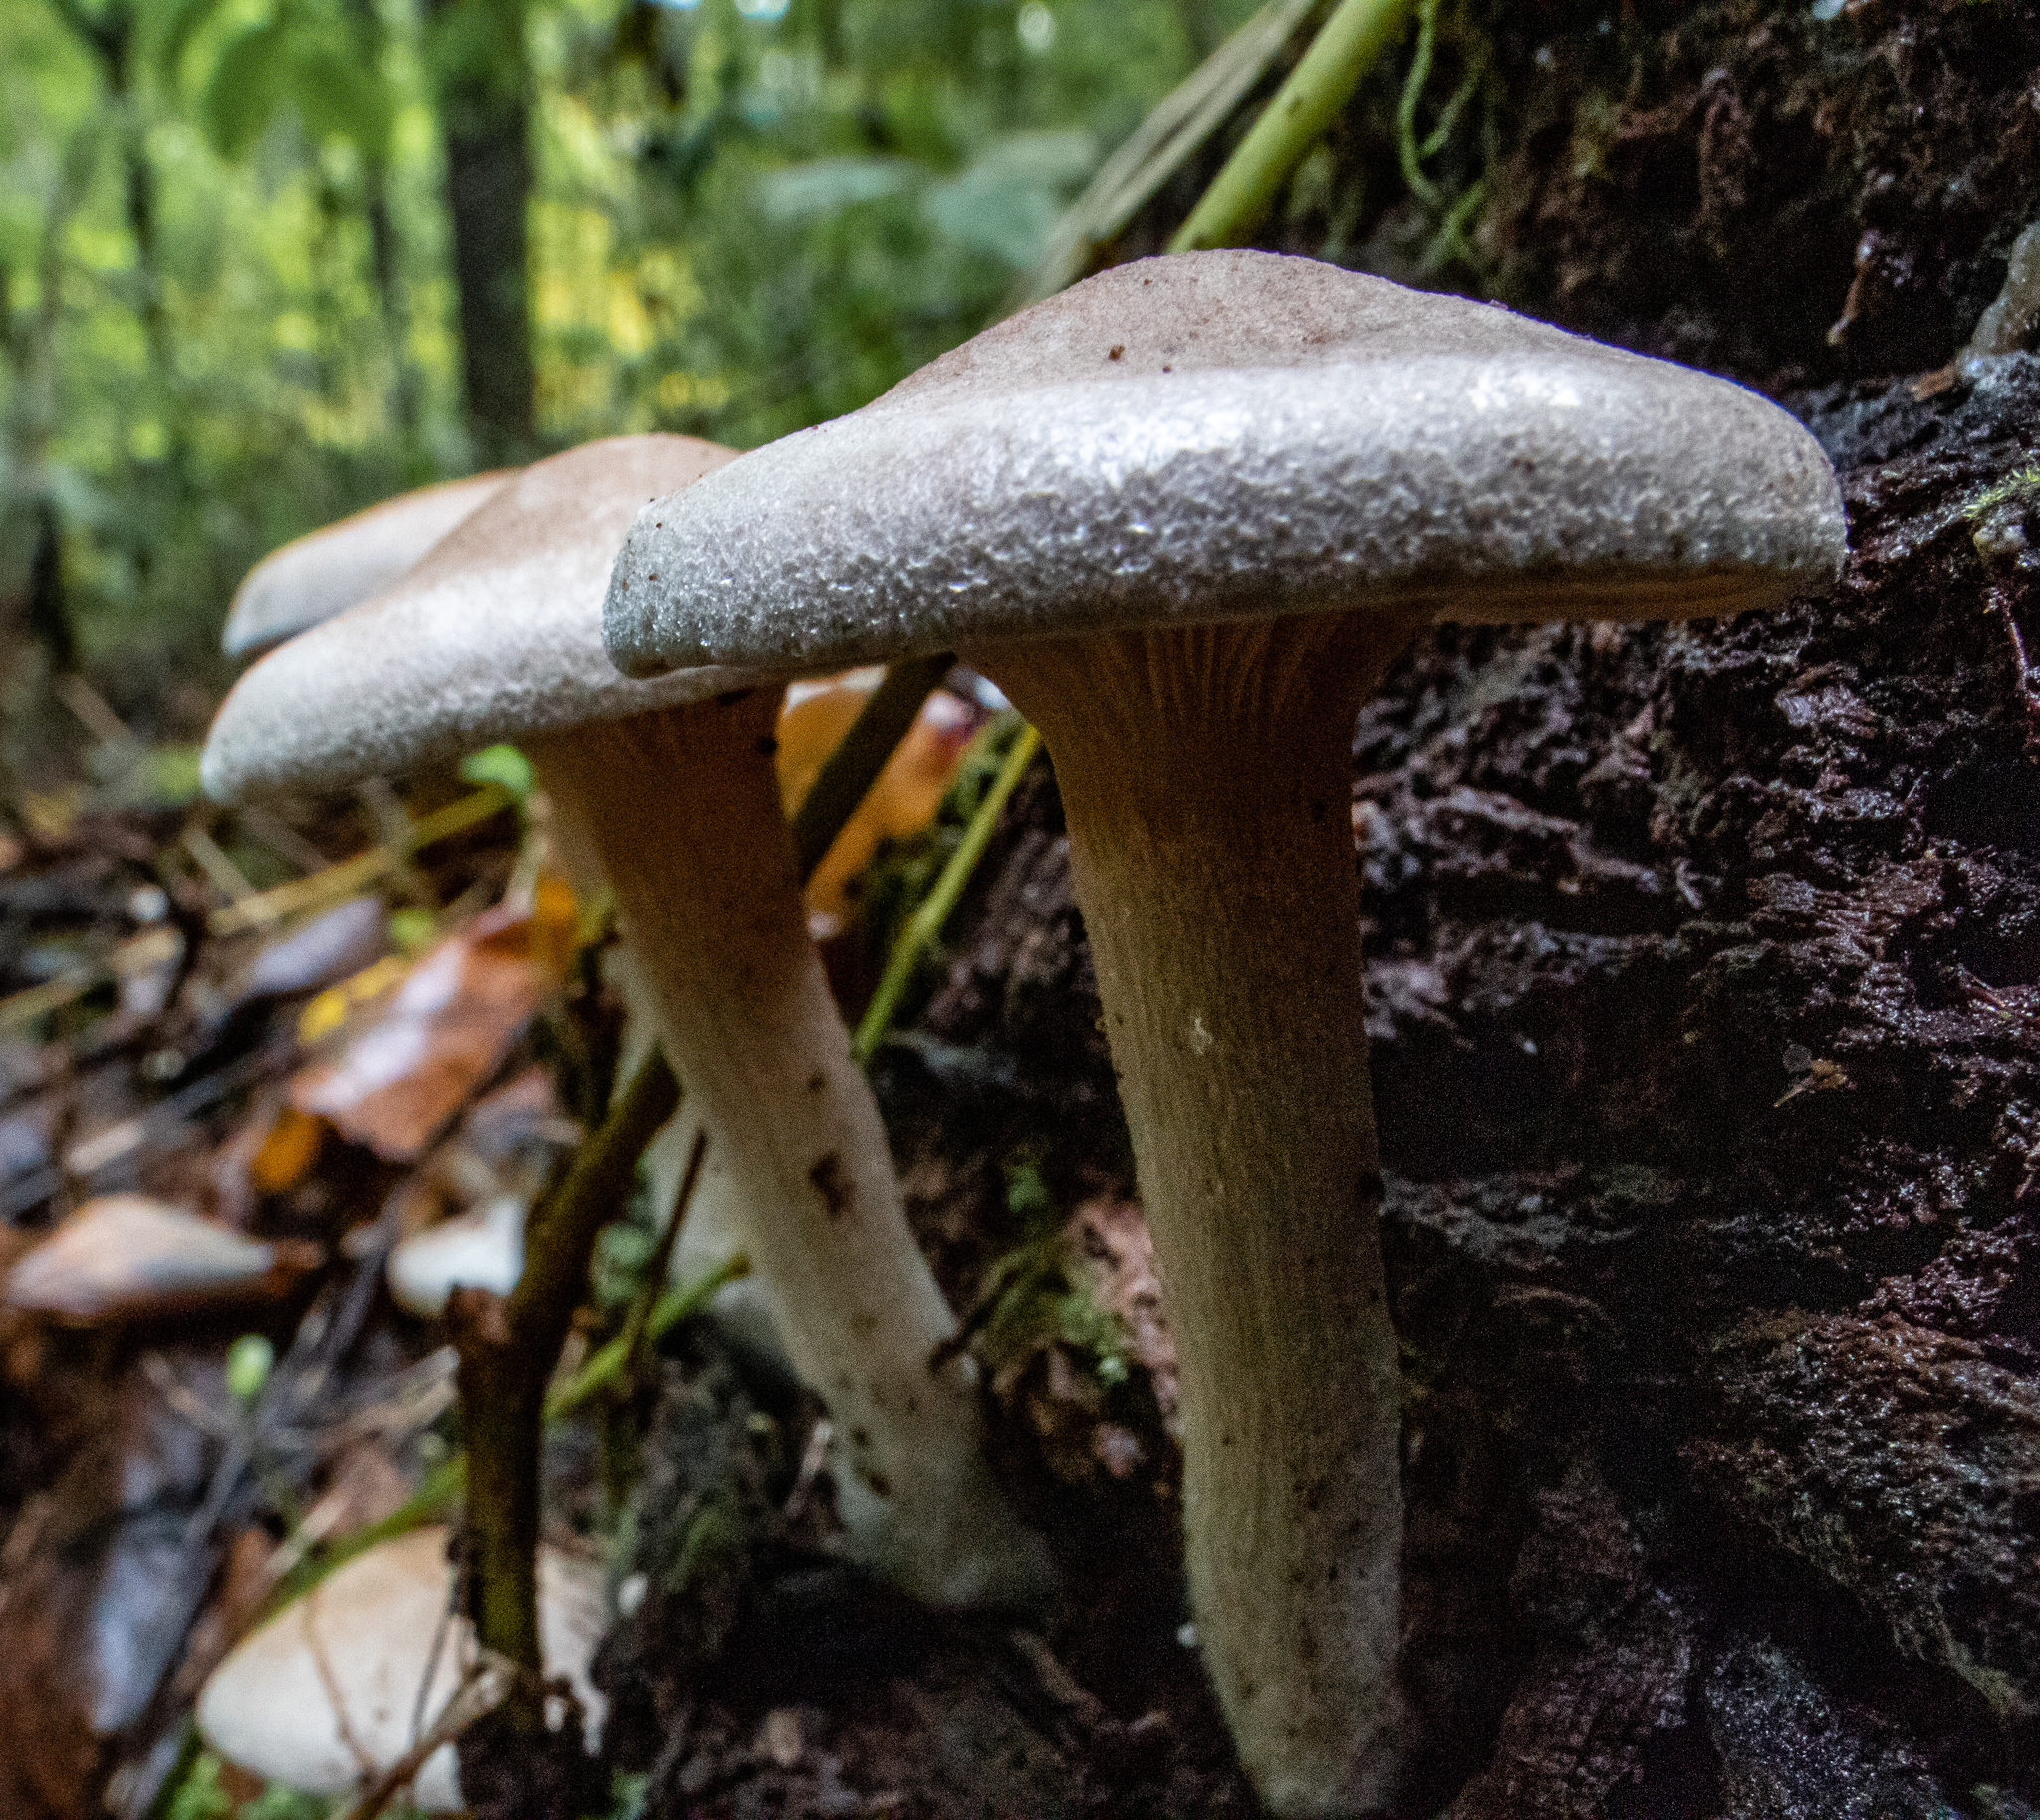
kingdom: Fungi
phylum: Basidiomycota
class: Agaricomycetes
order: Agaricales
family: Entolomataceae
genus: Entoloma
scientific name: Entoloma abortivum
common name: Aborted entoloma
